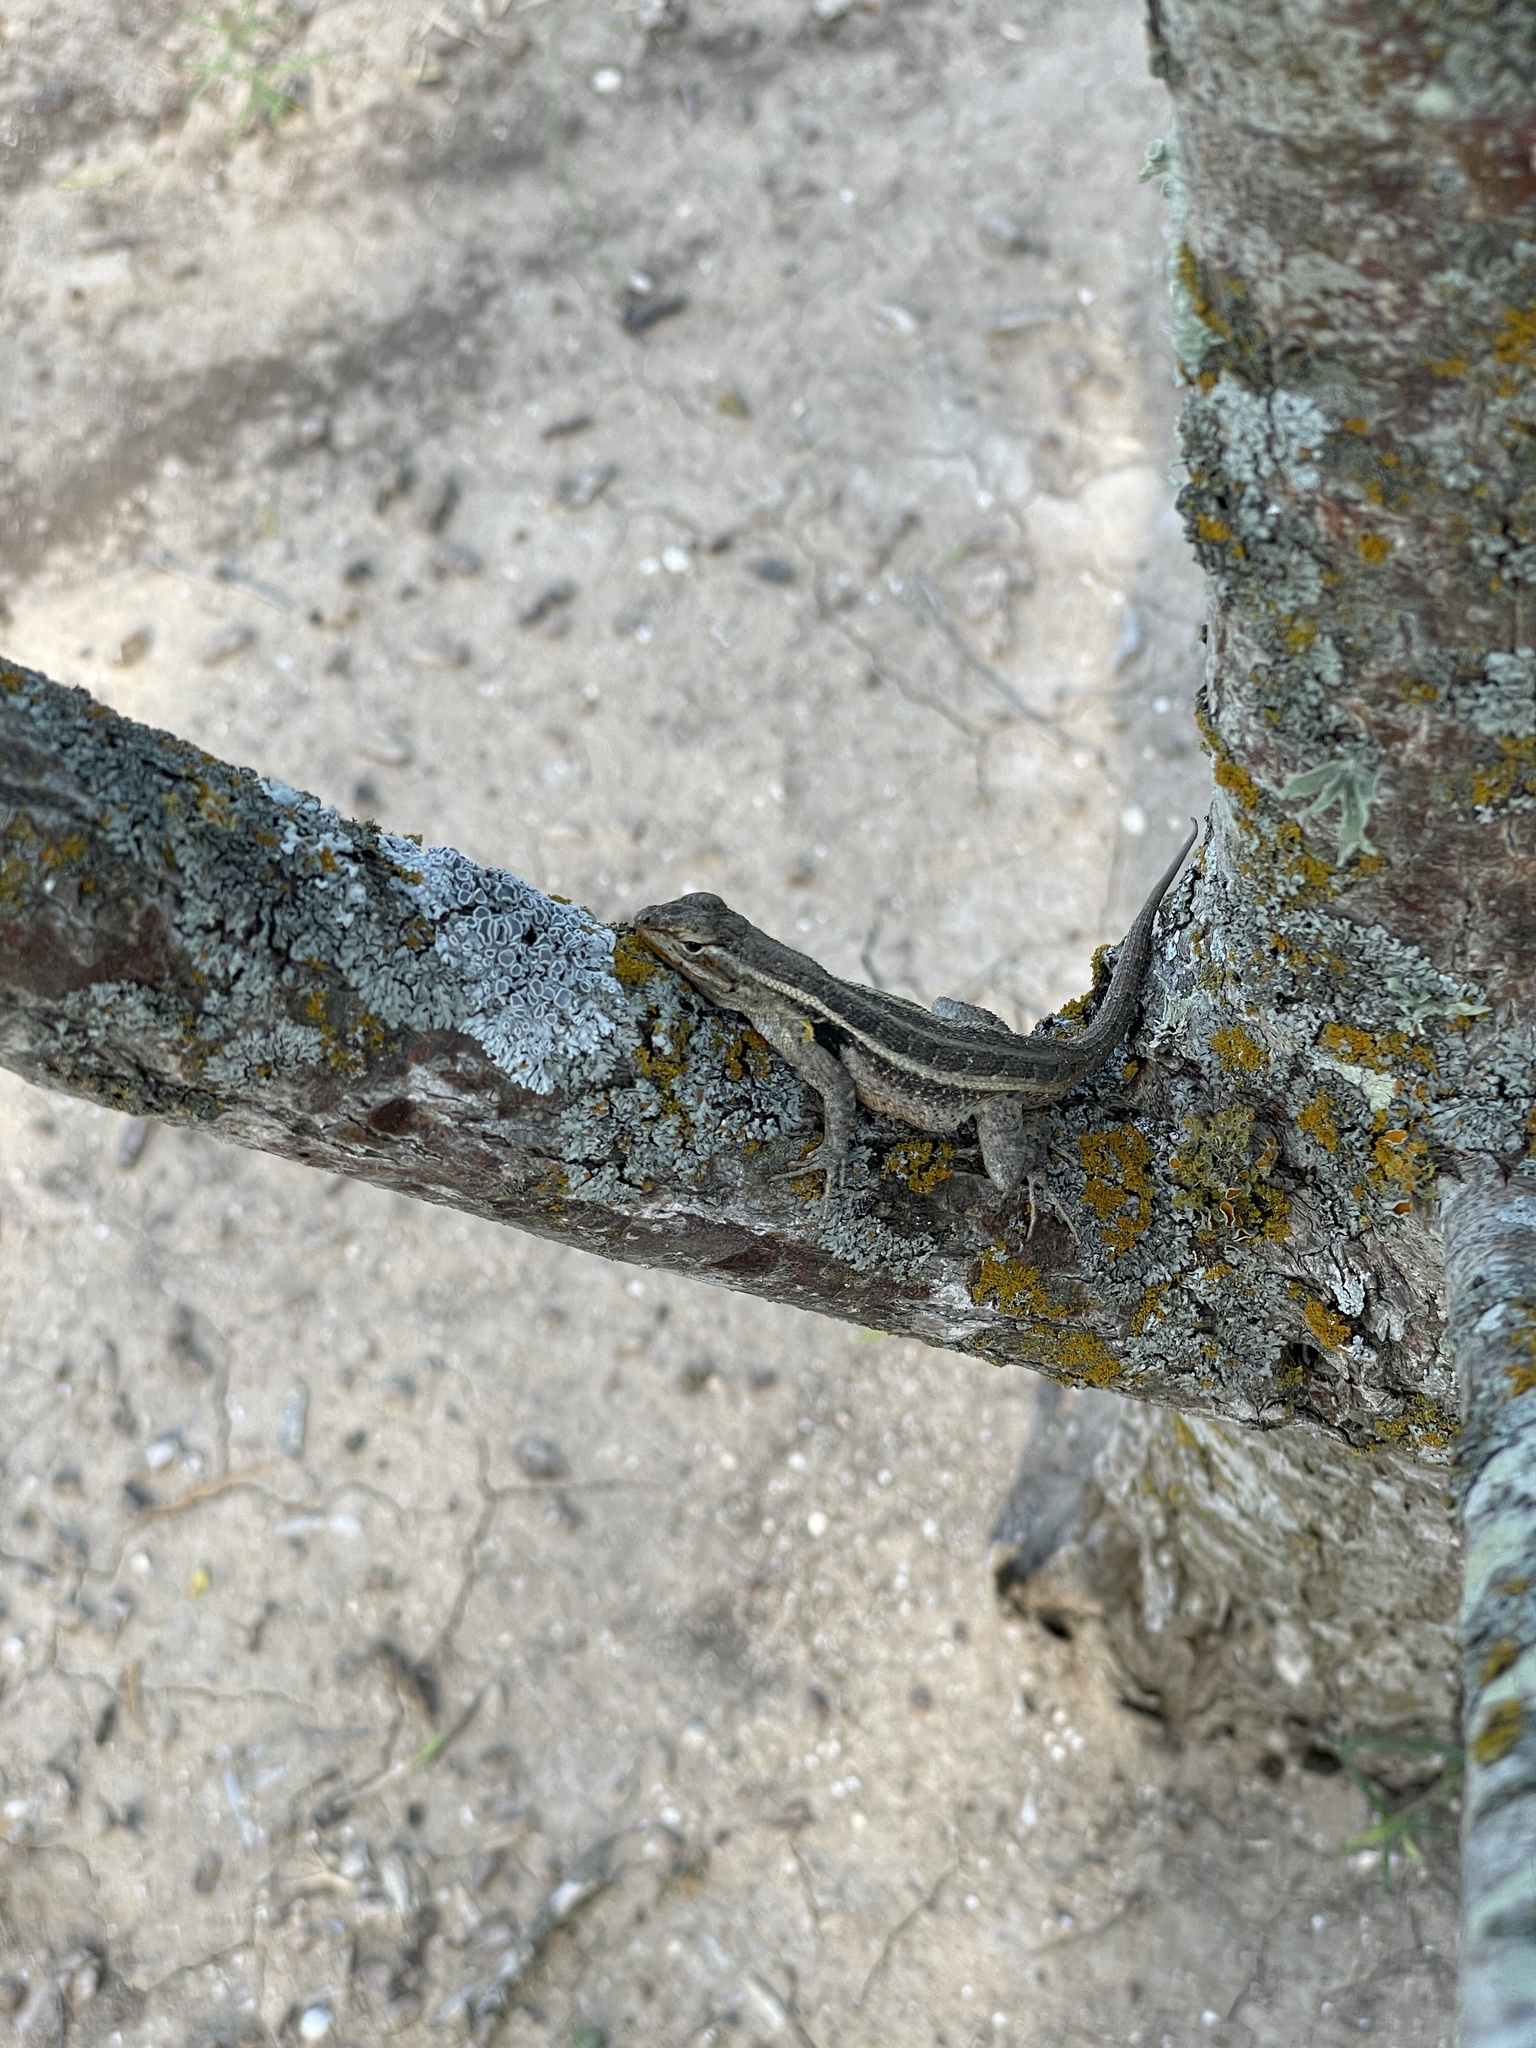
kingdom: Animalia
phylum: Chordata
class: Squamata
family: Phrynosomatidae
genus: Sceloporus
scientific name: Sceloporus variabilis
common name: Rosebelly lizard
